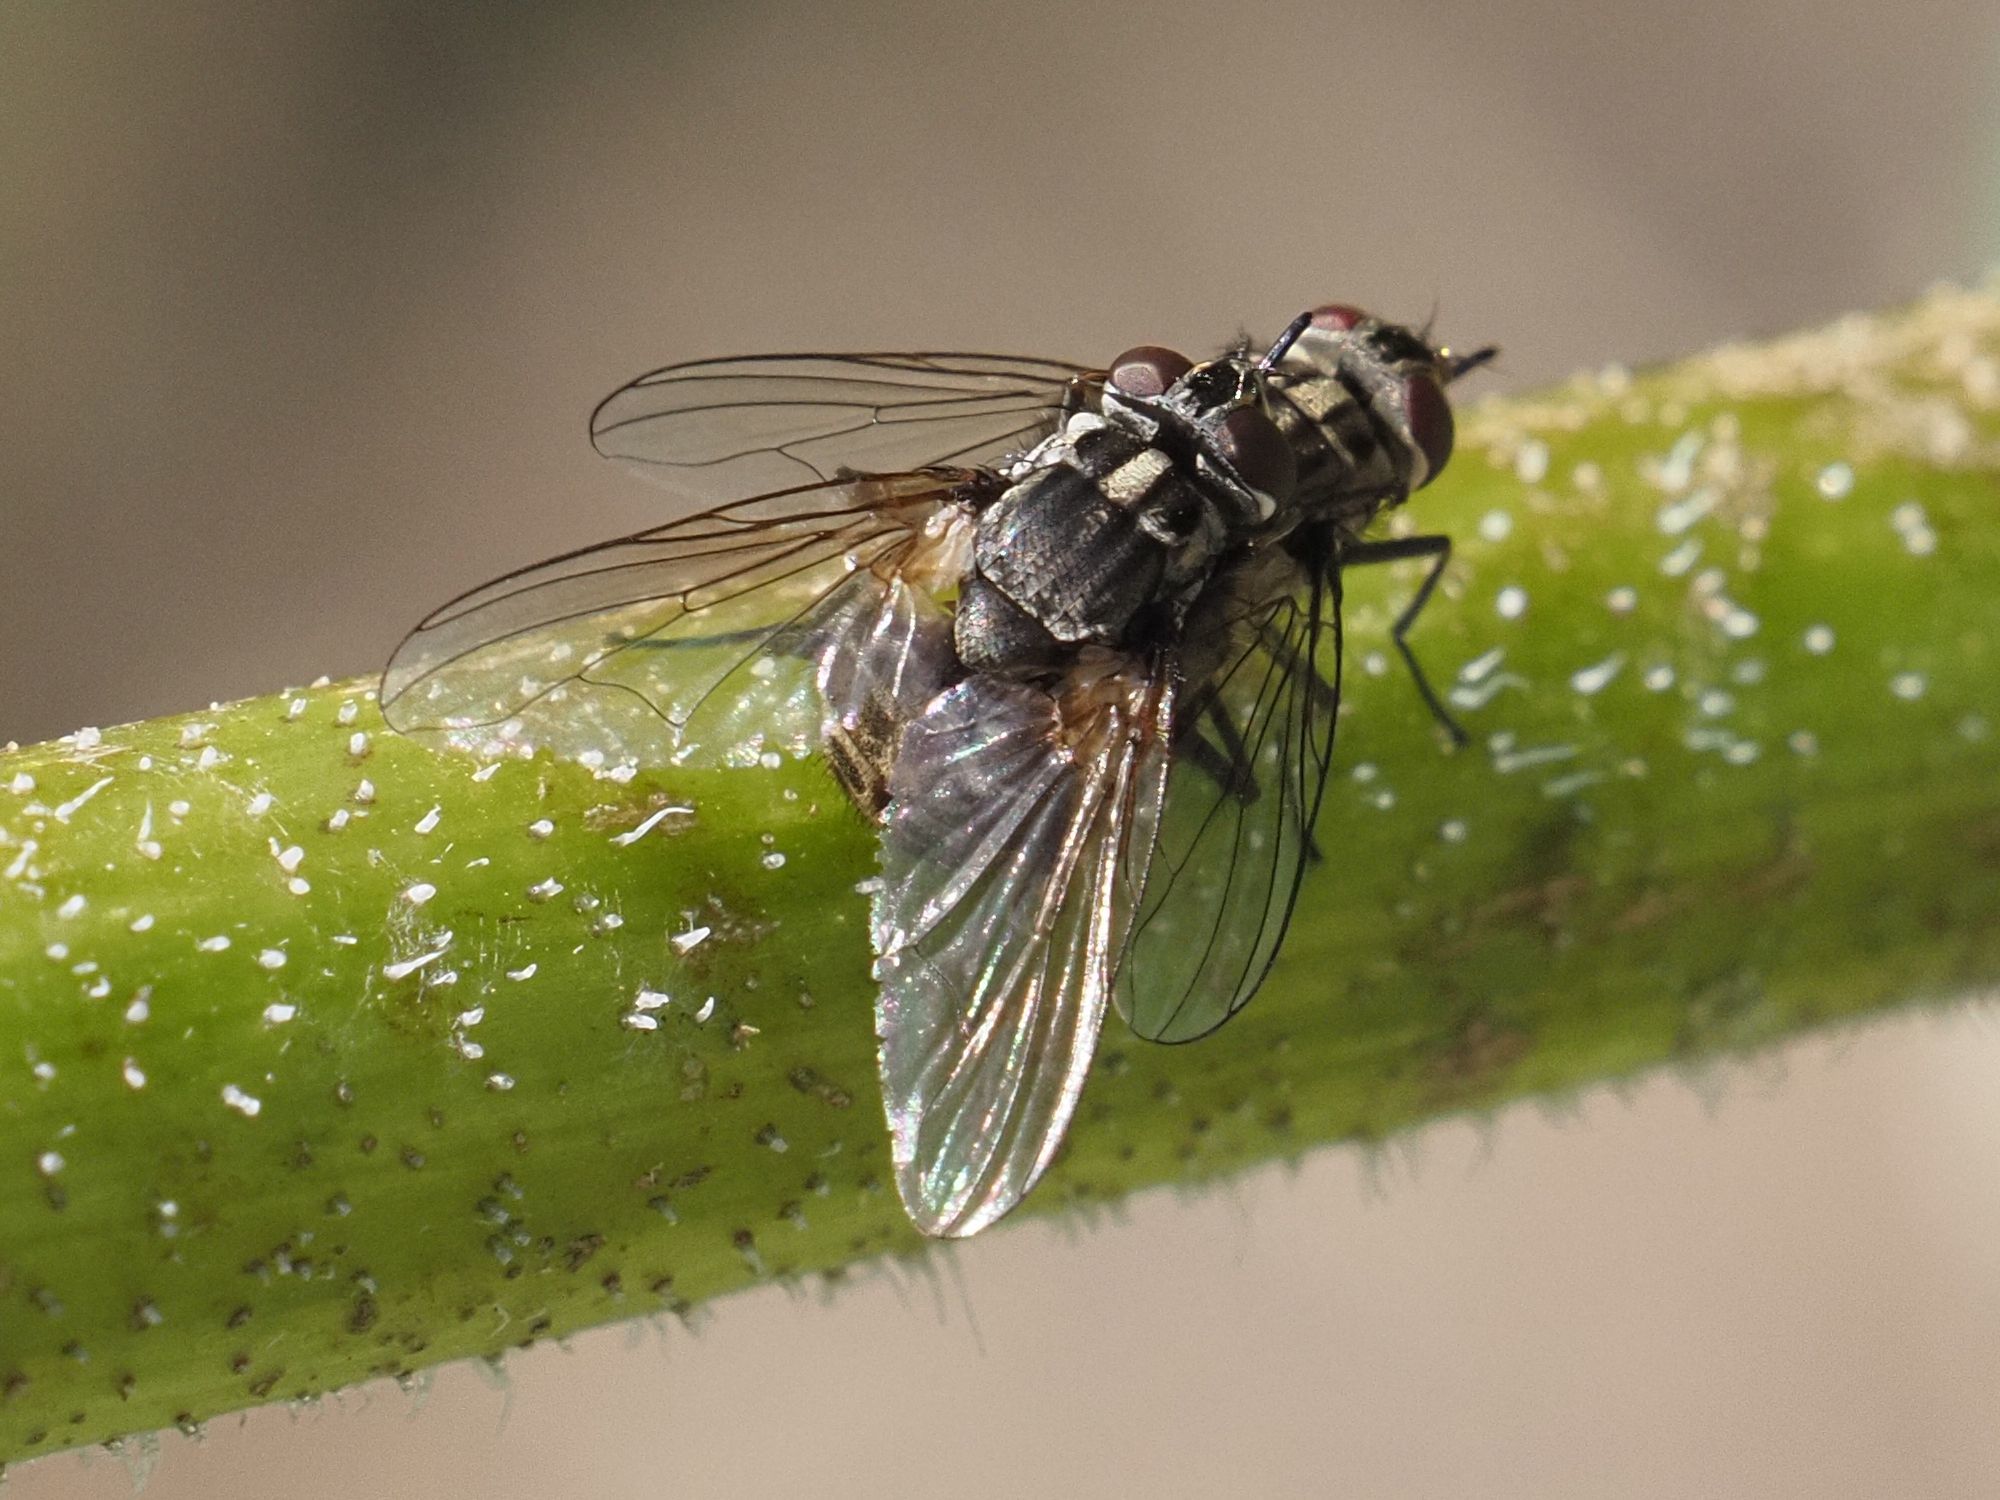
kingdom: Animalia
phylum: Arthropoda
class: Insecta
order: Diptera
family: Muscidae
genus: Stomoxys
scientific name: Stomoxys calcitrans
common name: Stable fly
